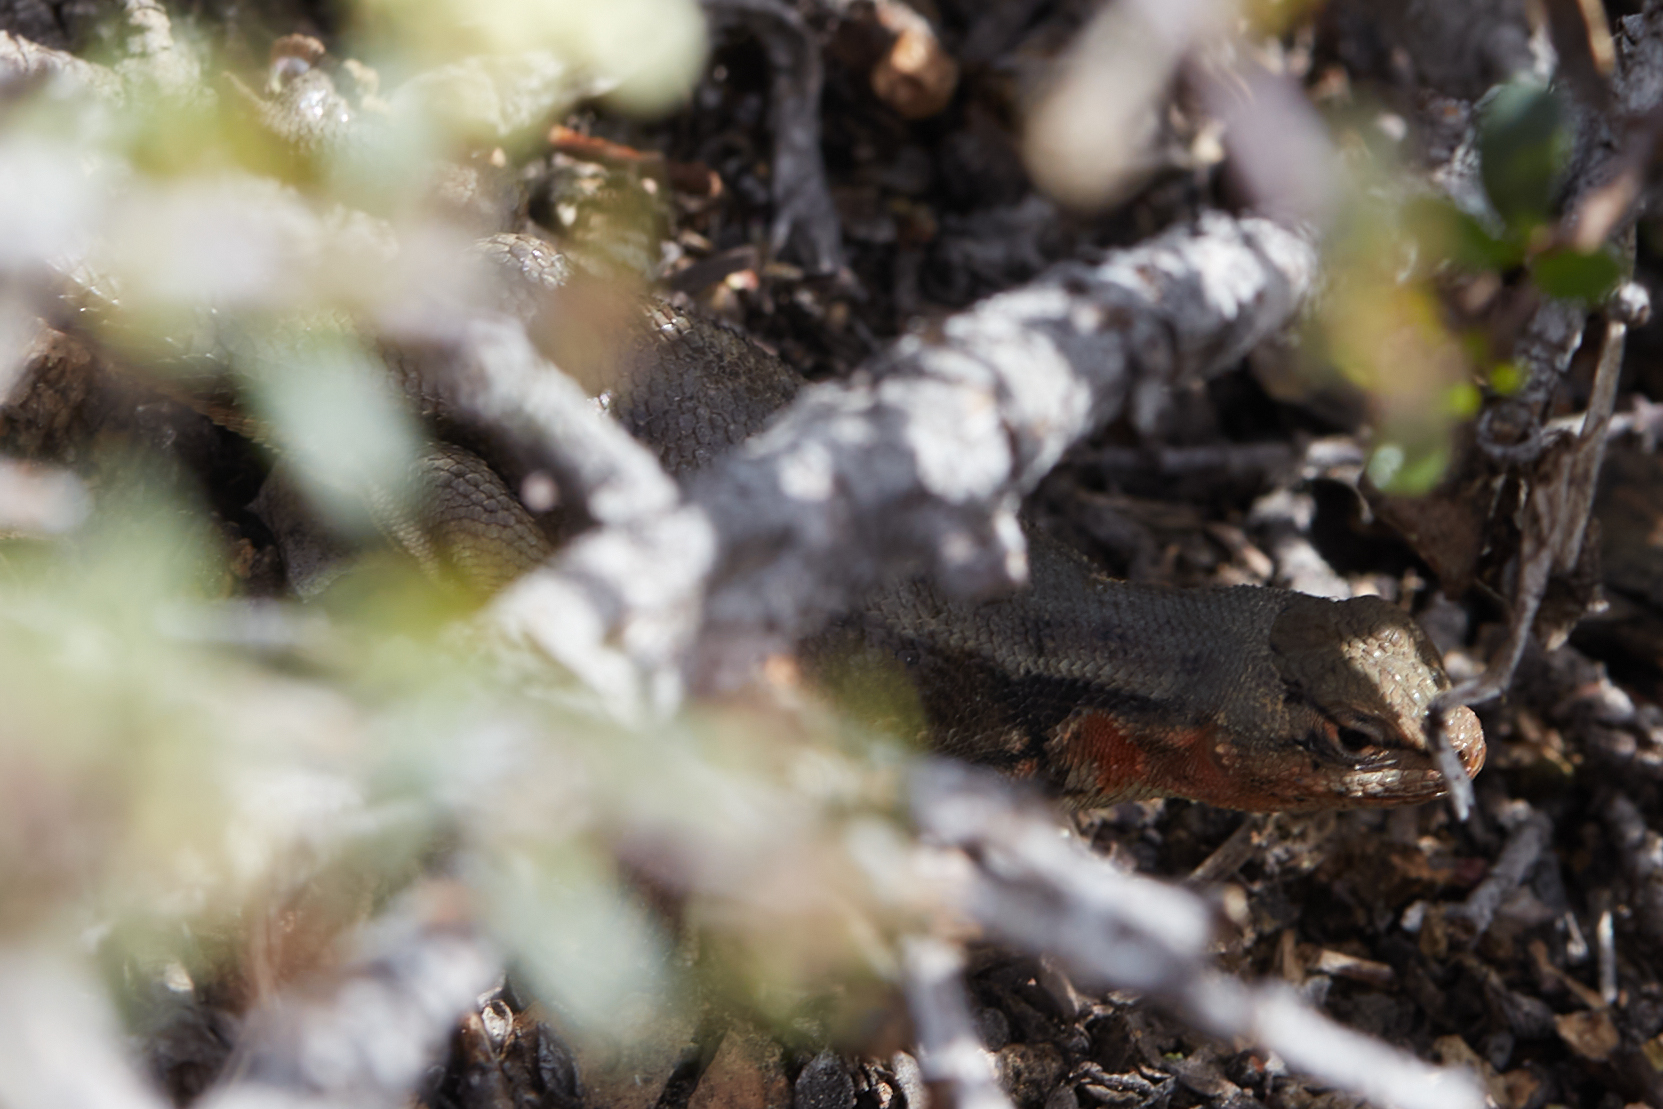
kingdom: Animalia
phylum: Chordata
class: Squamata
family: Phrynosomatidae
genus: Sceloporus
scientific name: Sceloporus graciosus
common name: Sagebrush lizard
